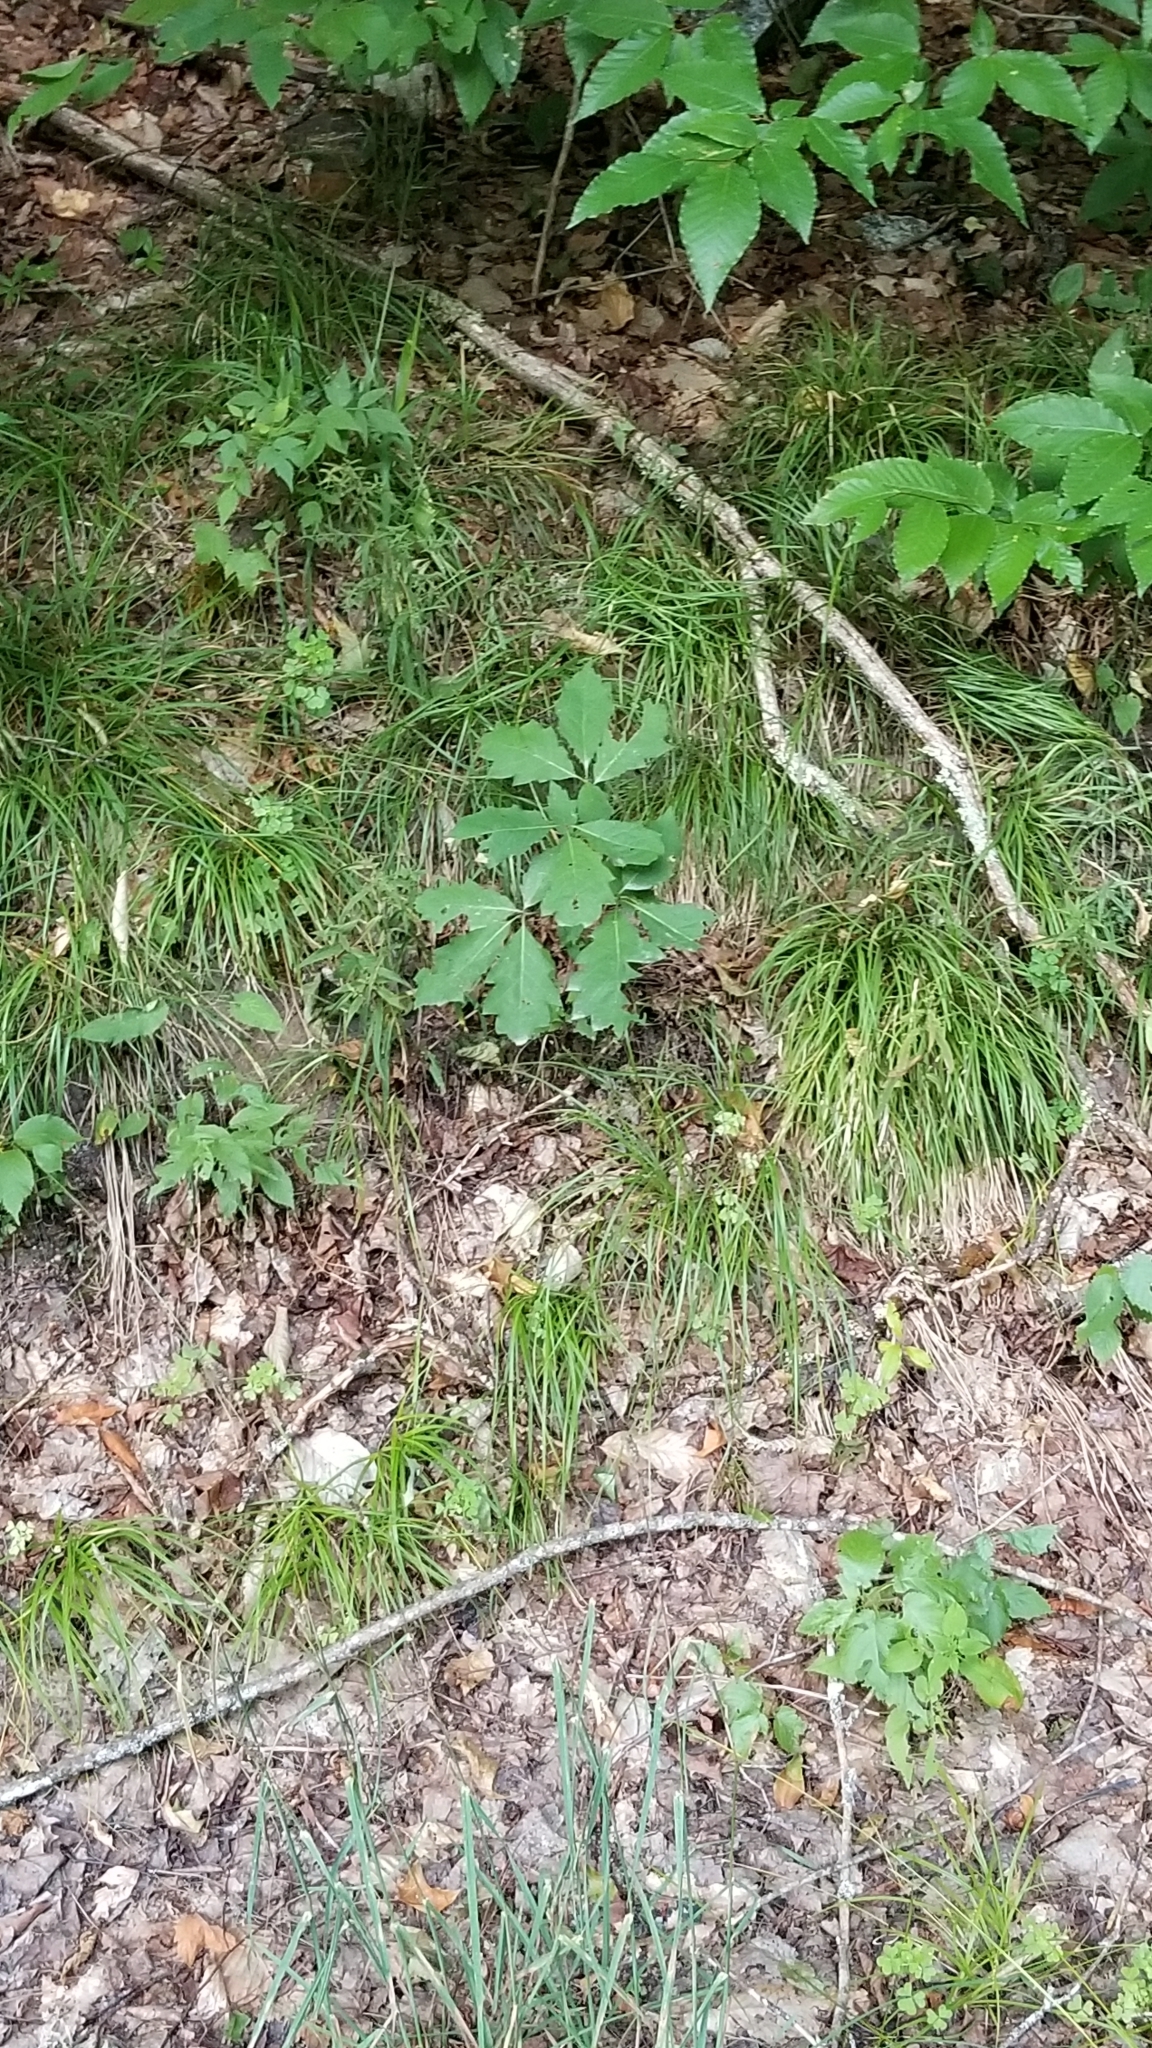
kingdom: Plantae
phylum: Tracheophyta
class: Magnoliopsida
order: Fagales
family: Fagaceae
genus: Quercus
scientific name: Quercus rubra
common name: Red oak
